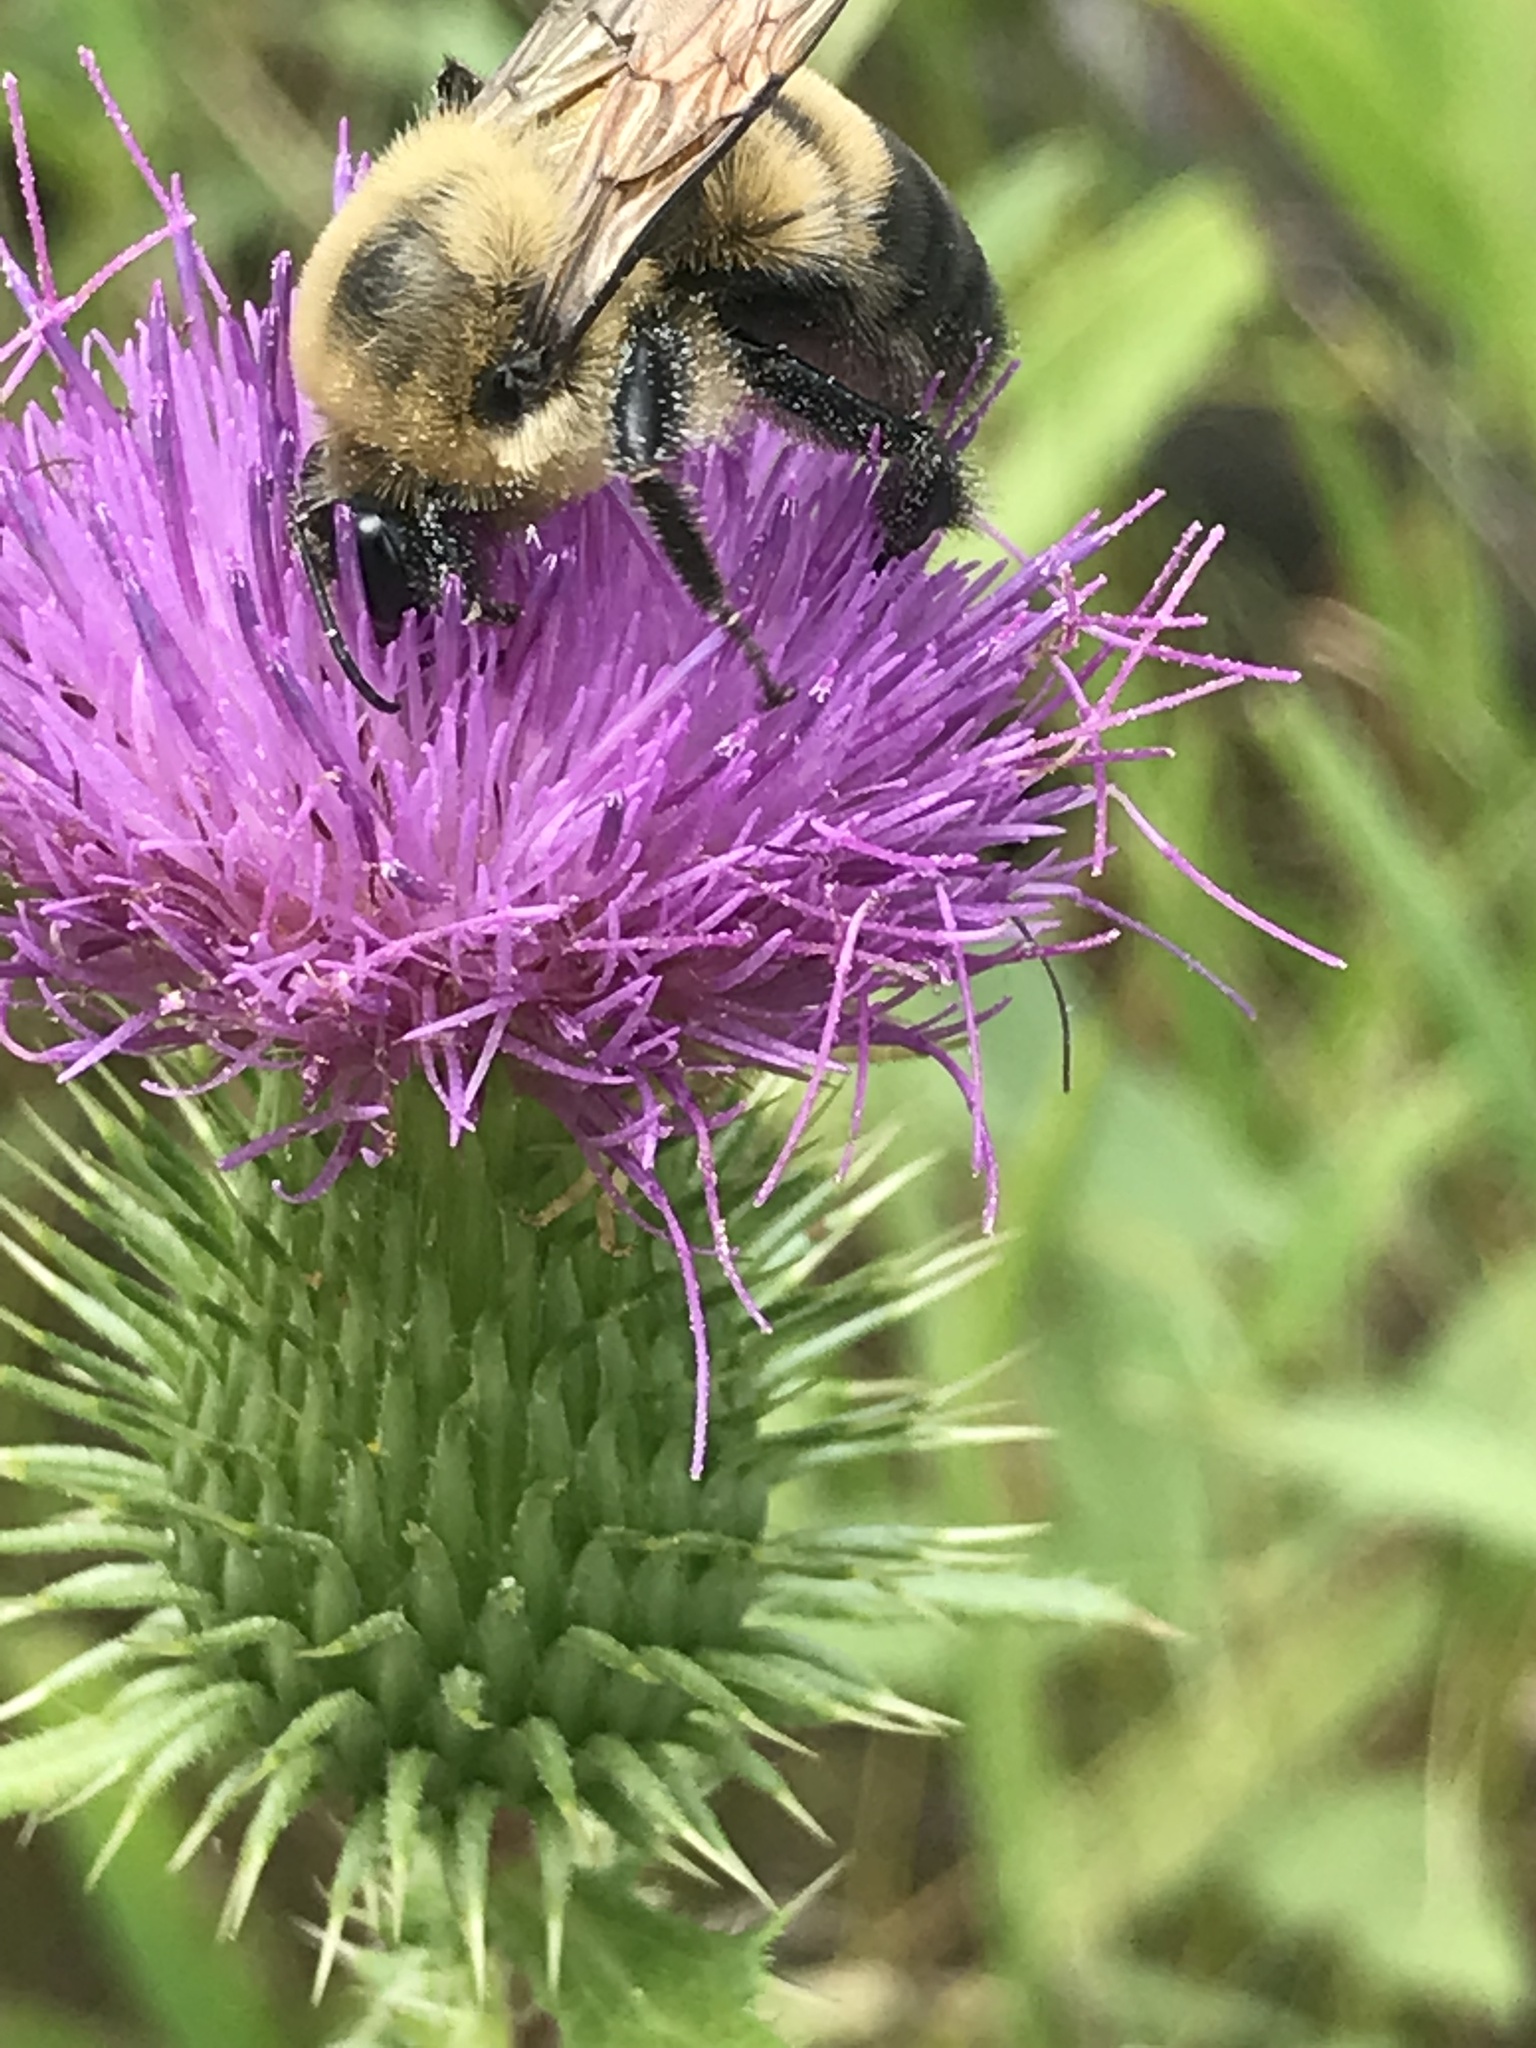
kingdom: Animalia
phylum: Arthropoda
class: Insecta
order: Hymenoptera
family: Apidae
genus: Bombus
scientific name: Bombus griseocollis
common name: Brown-belted bumble bee
